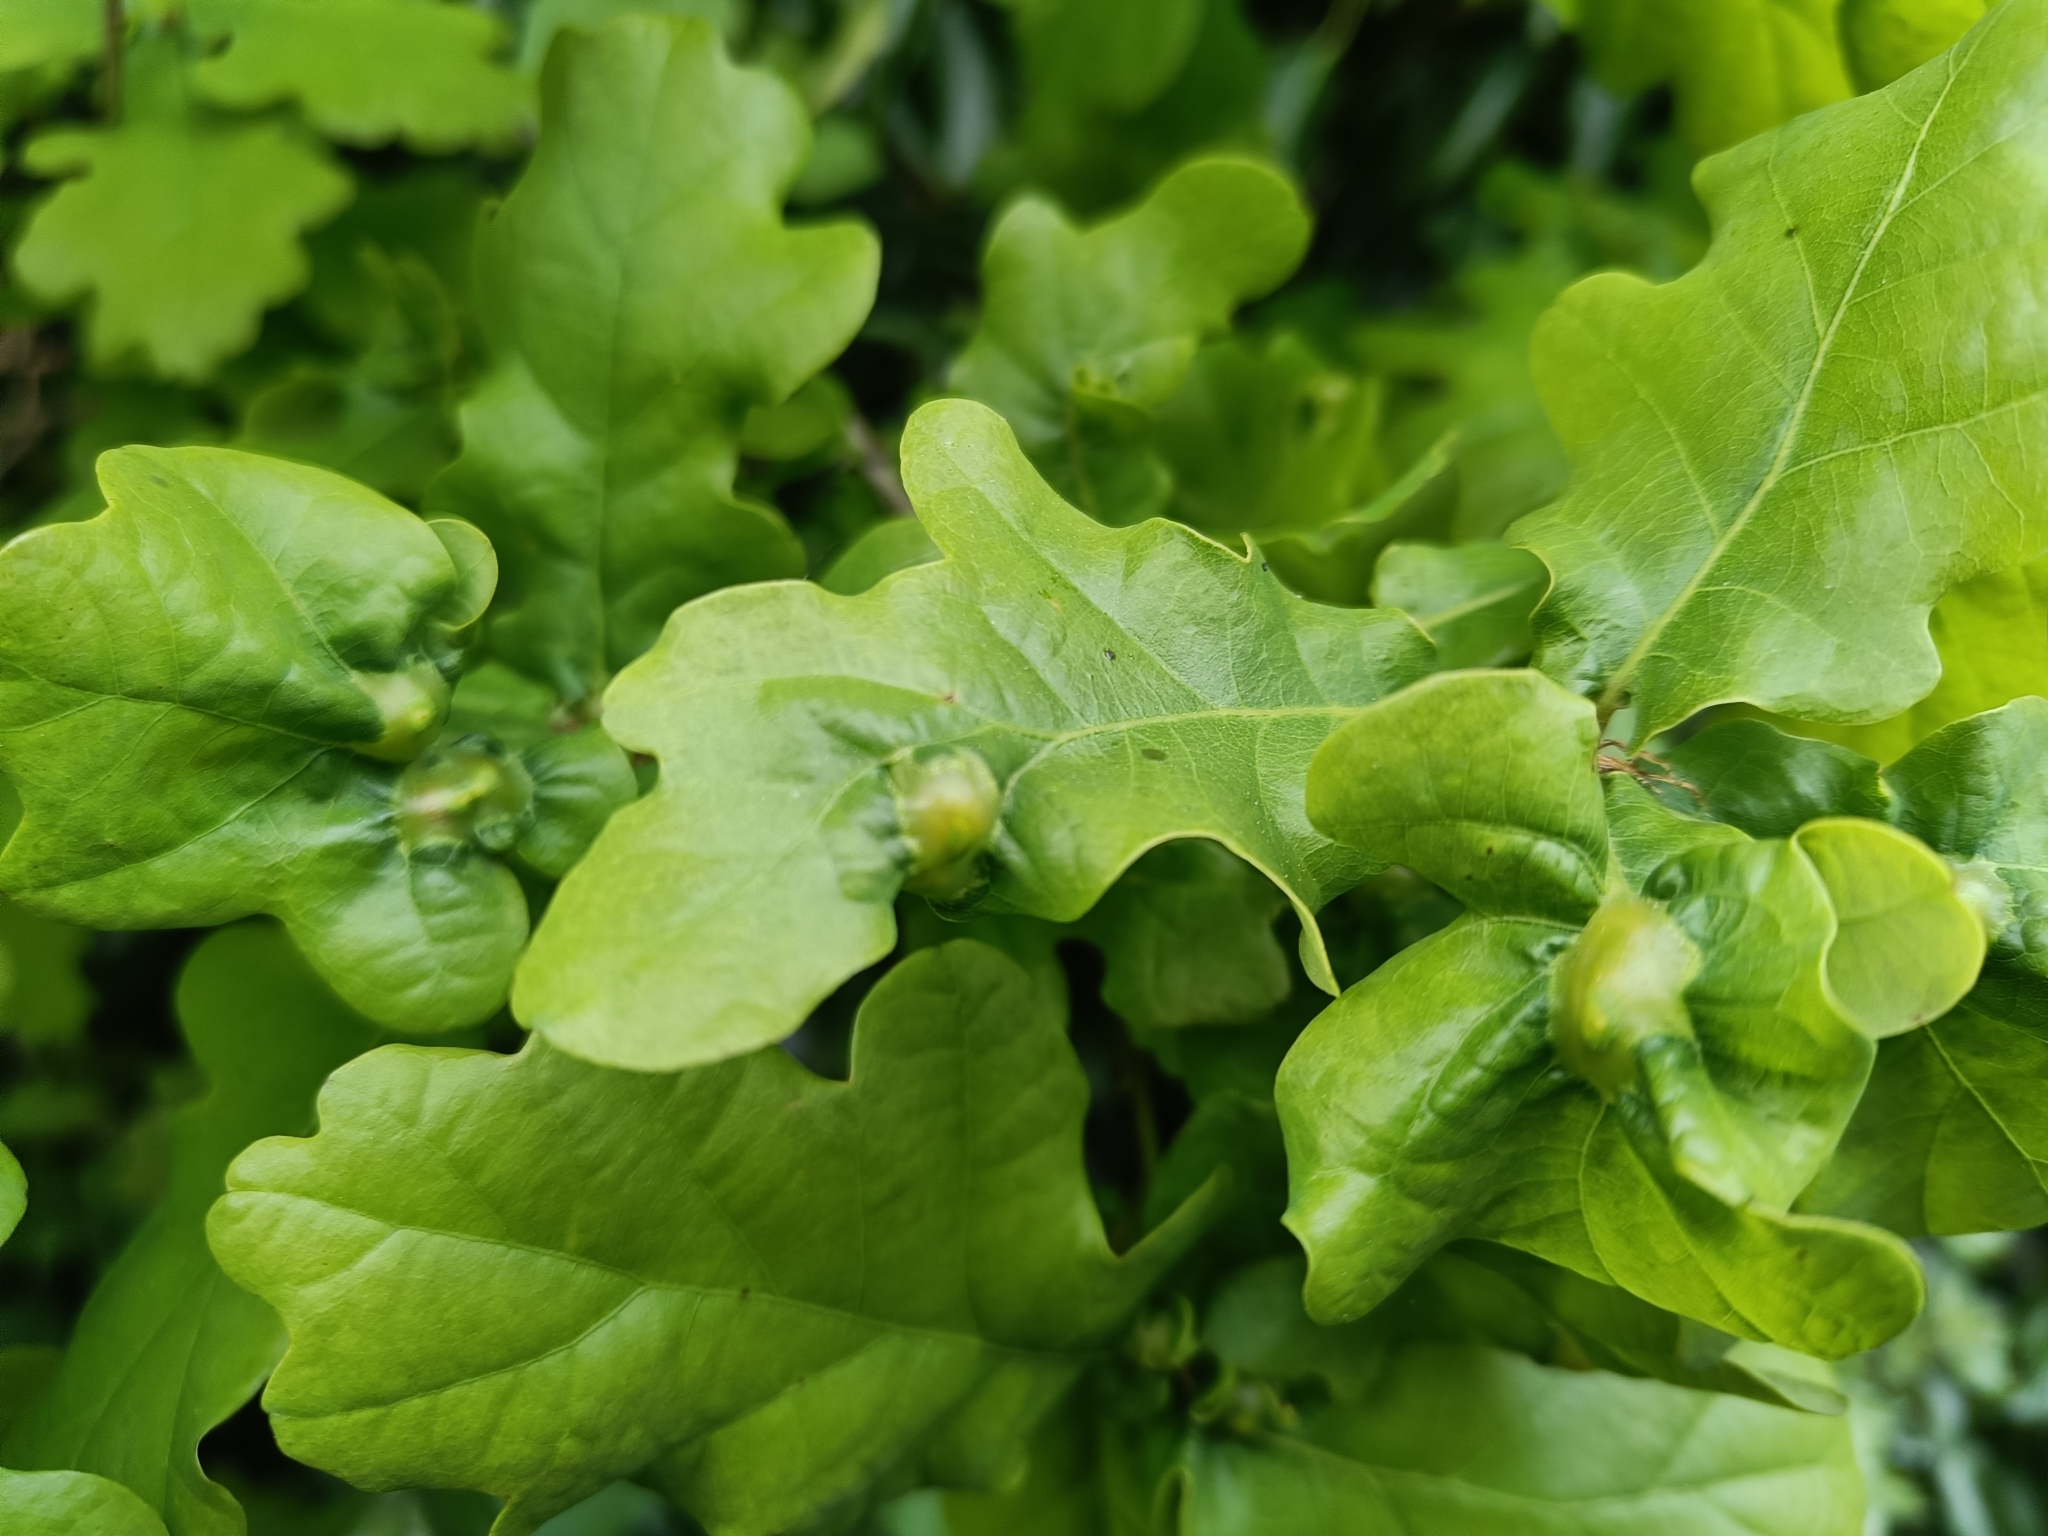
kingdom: Animalia
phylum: Arthropoda
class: Insecta
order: Hymenoptera
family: Cynipidae
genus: Andricus
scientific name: Andricus curvator
